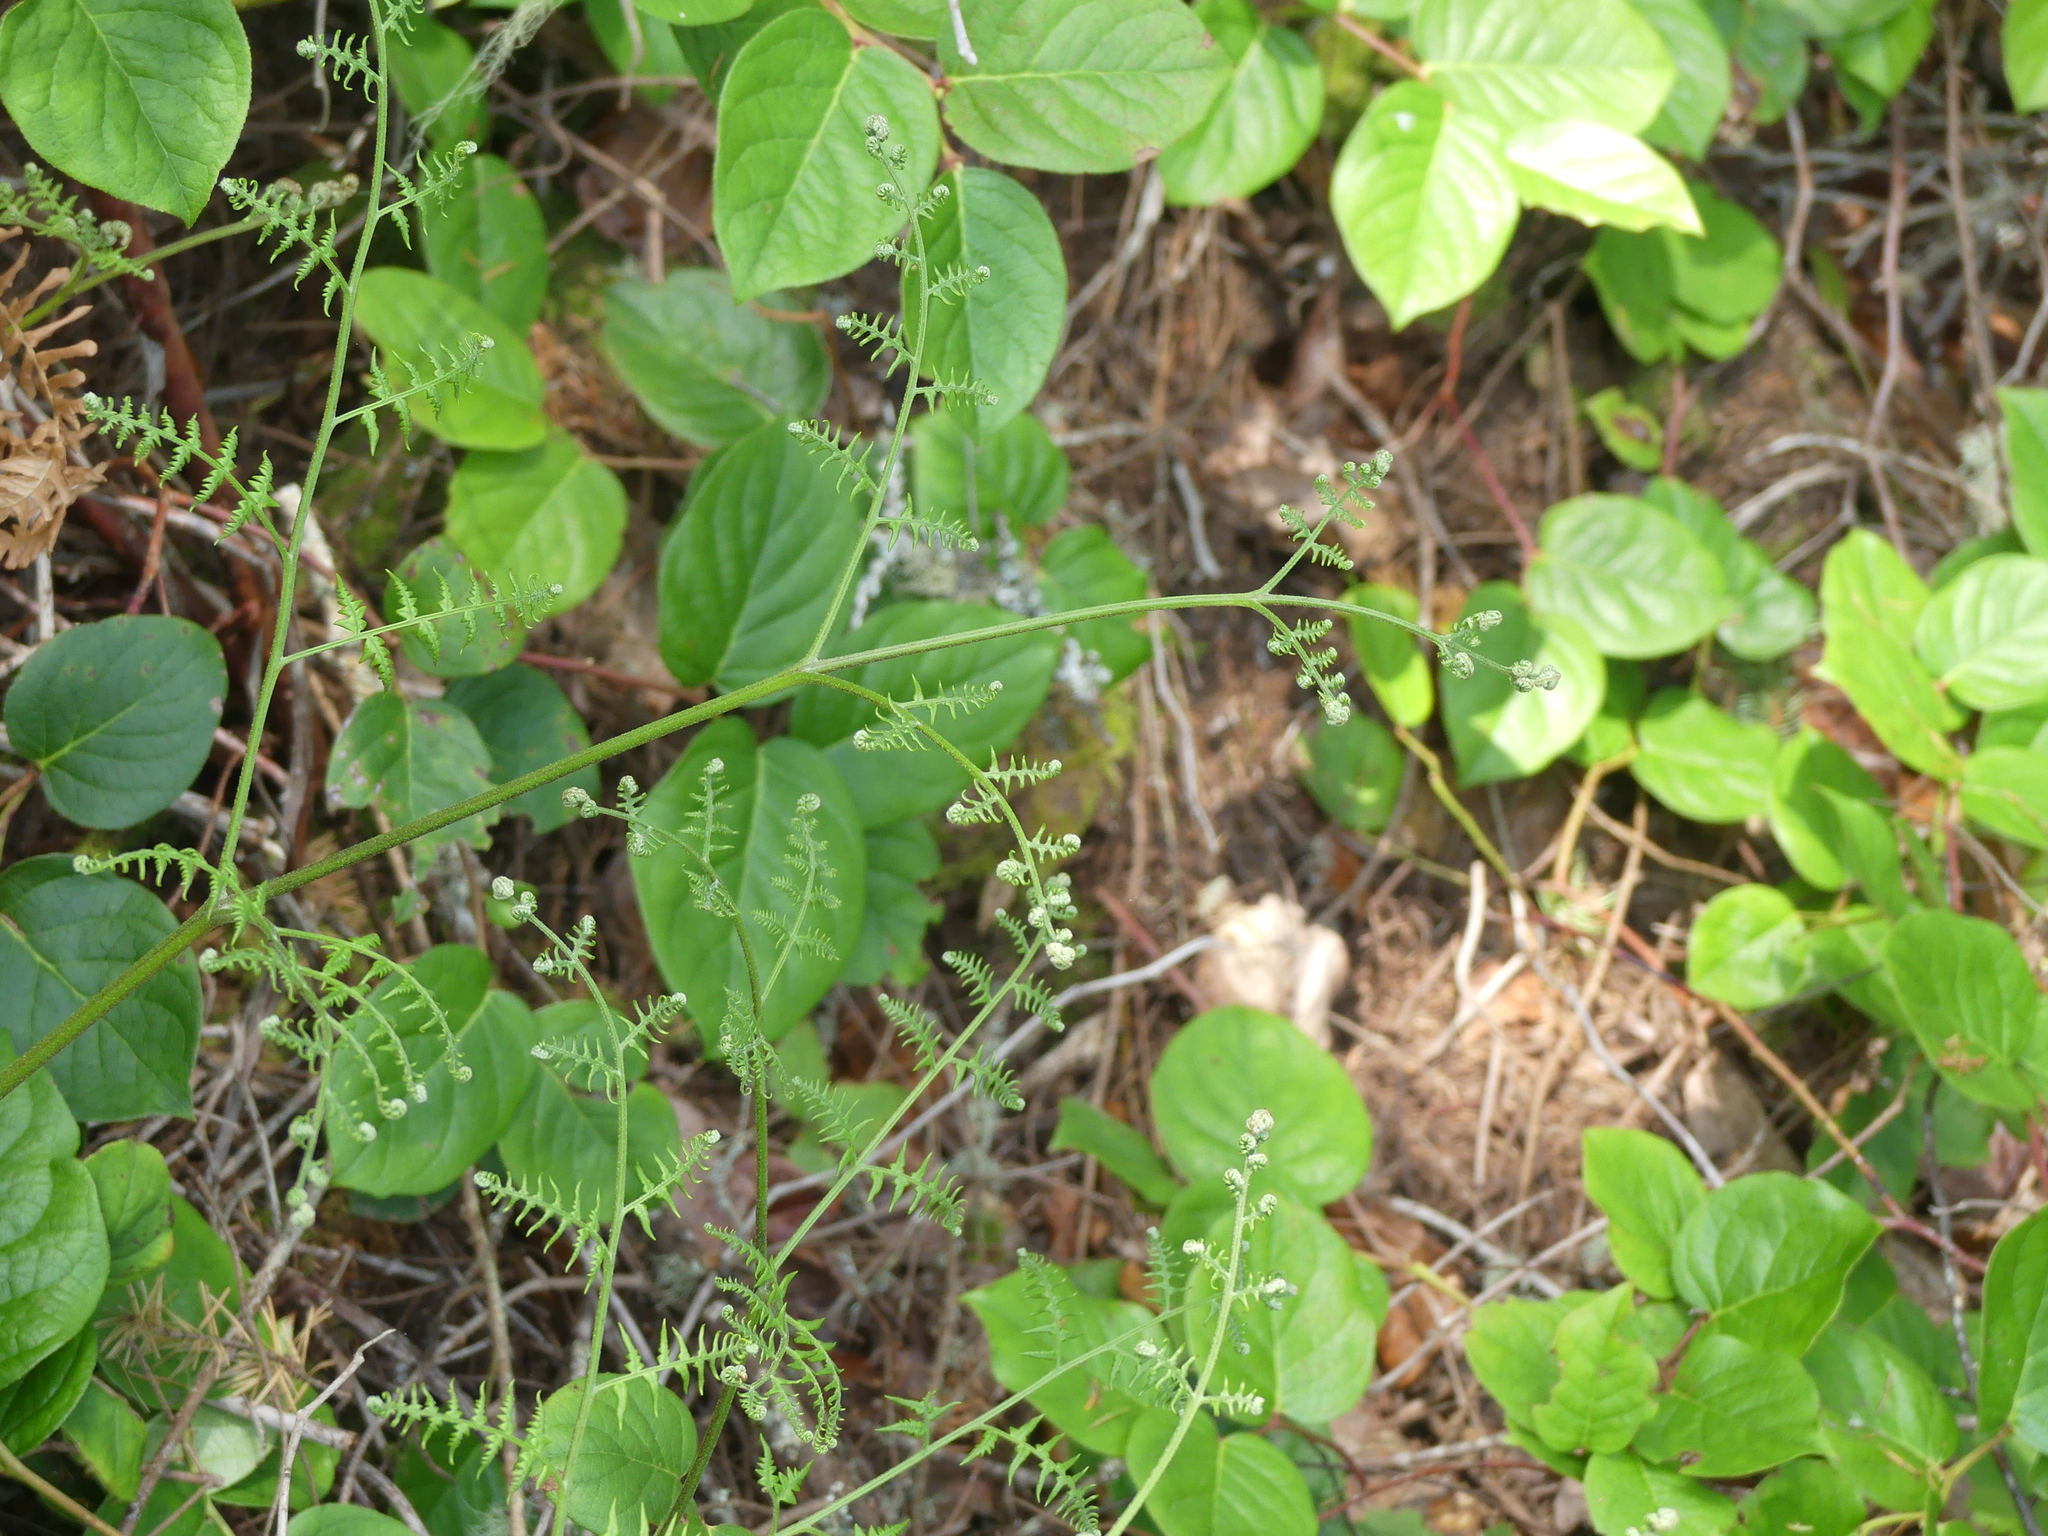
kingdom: Plantae
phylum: Tracheophyta
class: Polypodiopsida
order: Polypodiales
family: Dennstaedtiaceae
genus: Pteridium
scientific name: Pteridium aquilinum
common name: Bracken
